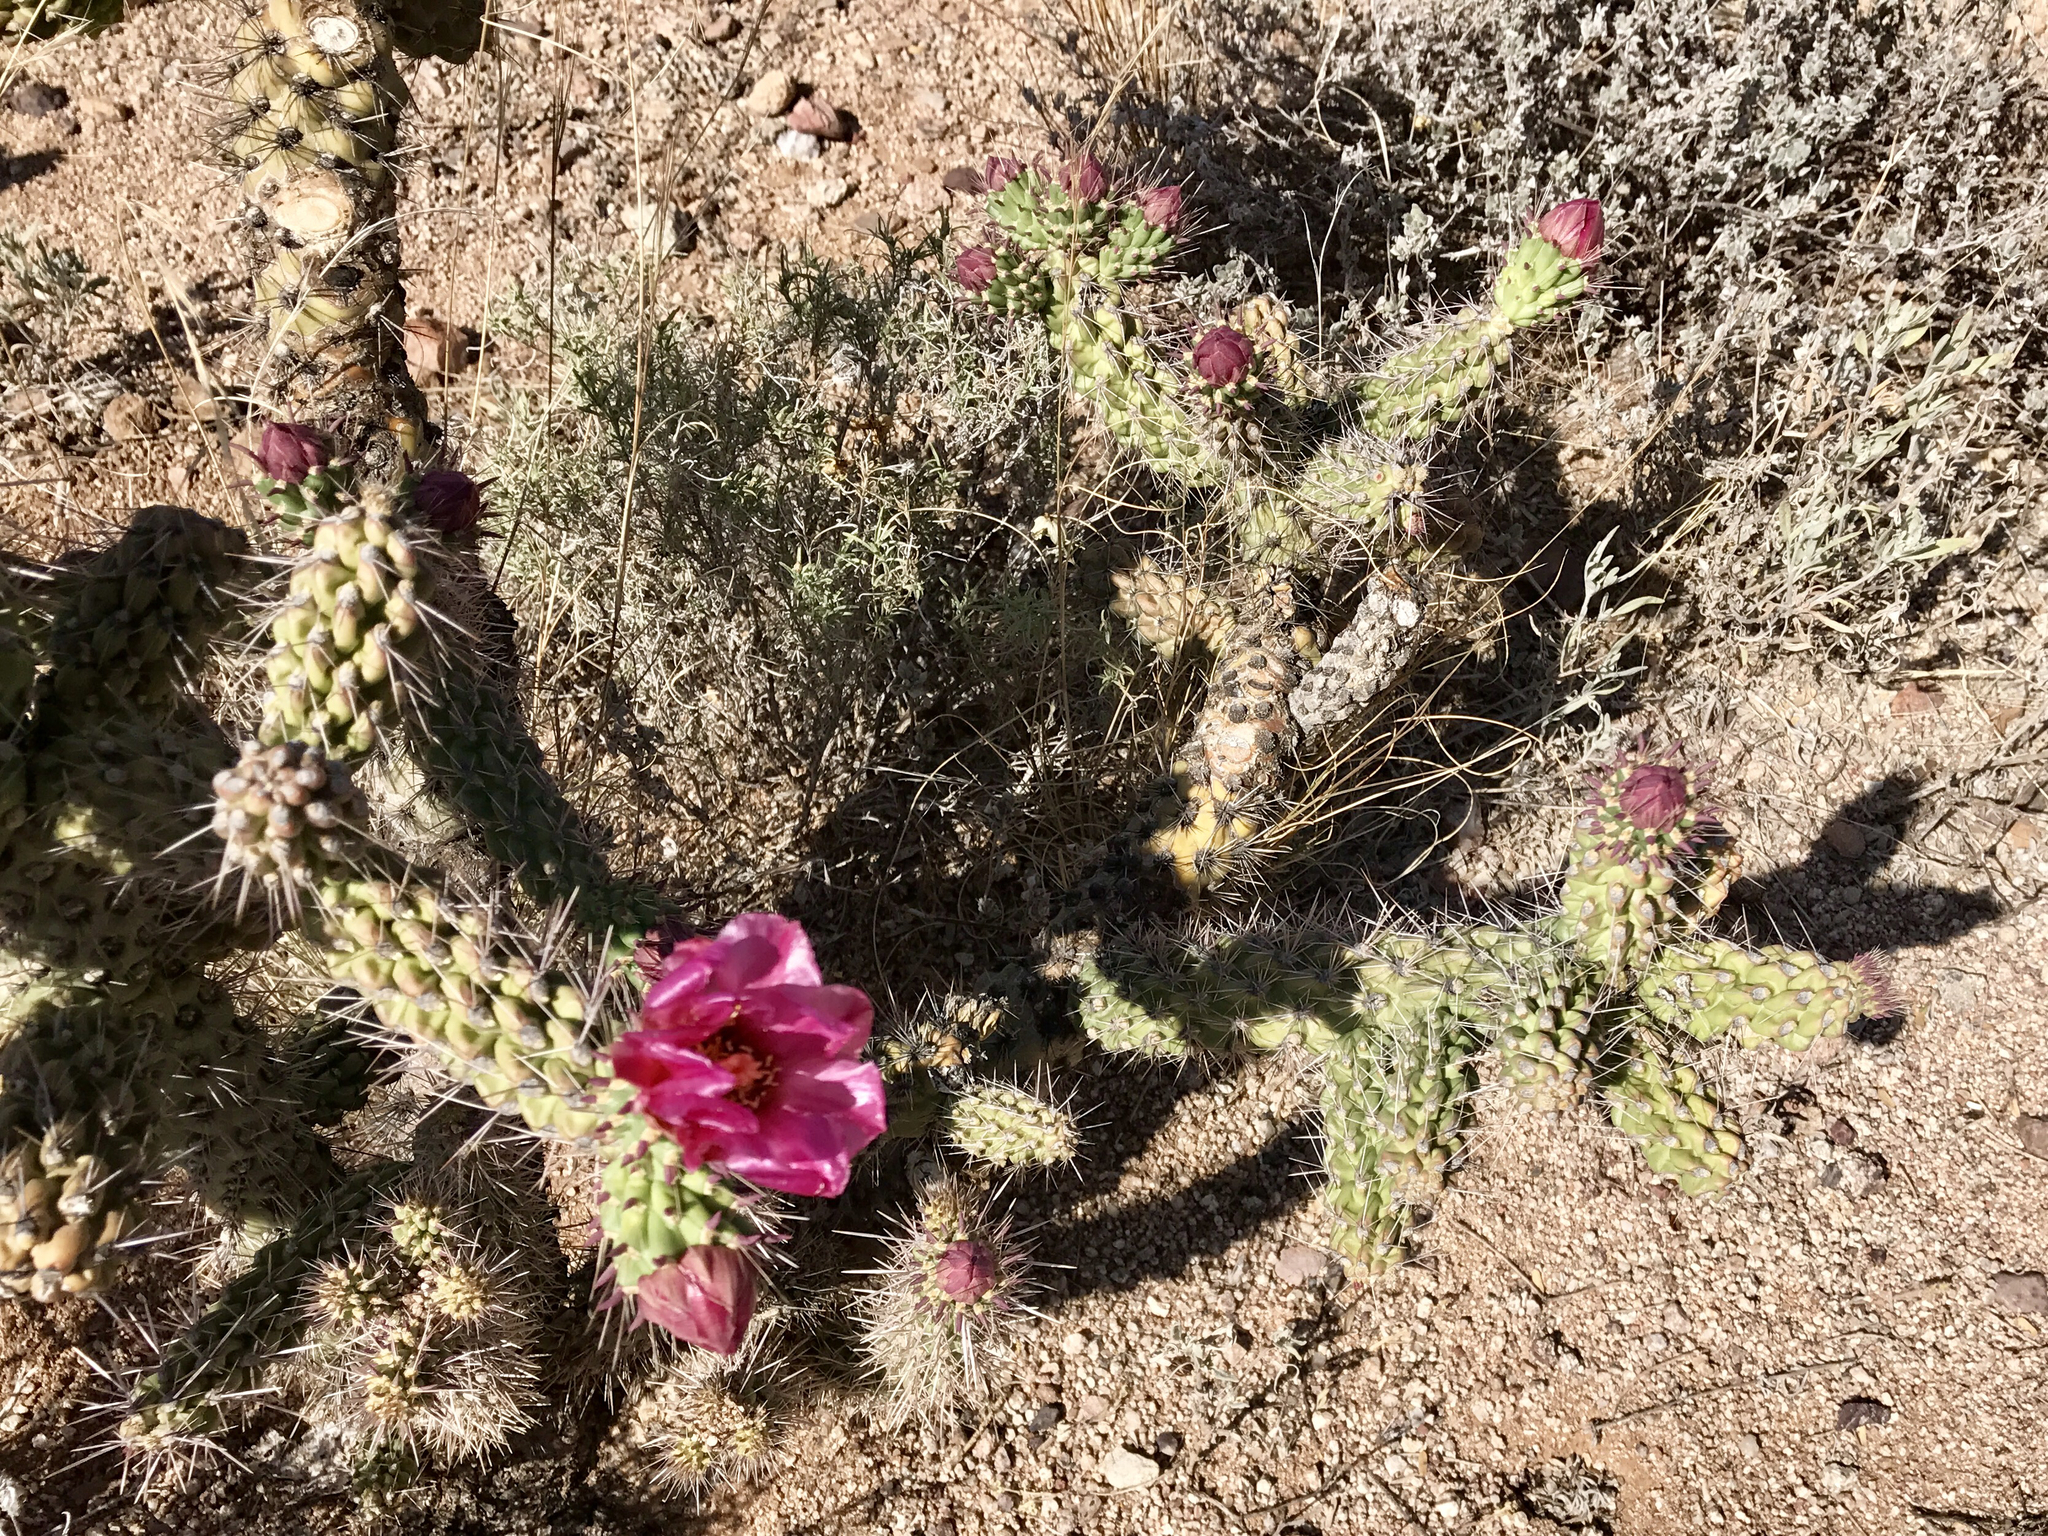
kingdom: Plantae
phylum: Tracheophyta
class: Magnoliopsida
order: Caryophyllales
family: Cactaceae
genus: Cylindropuntia
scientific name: Cylindropuntia imbricata
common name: Candelabrum cactus
